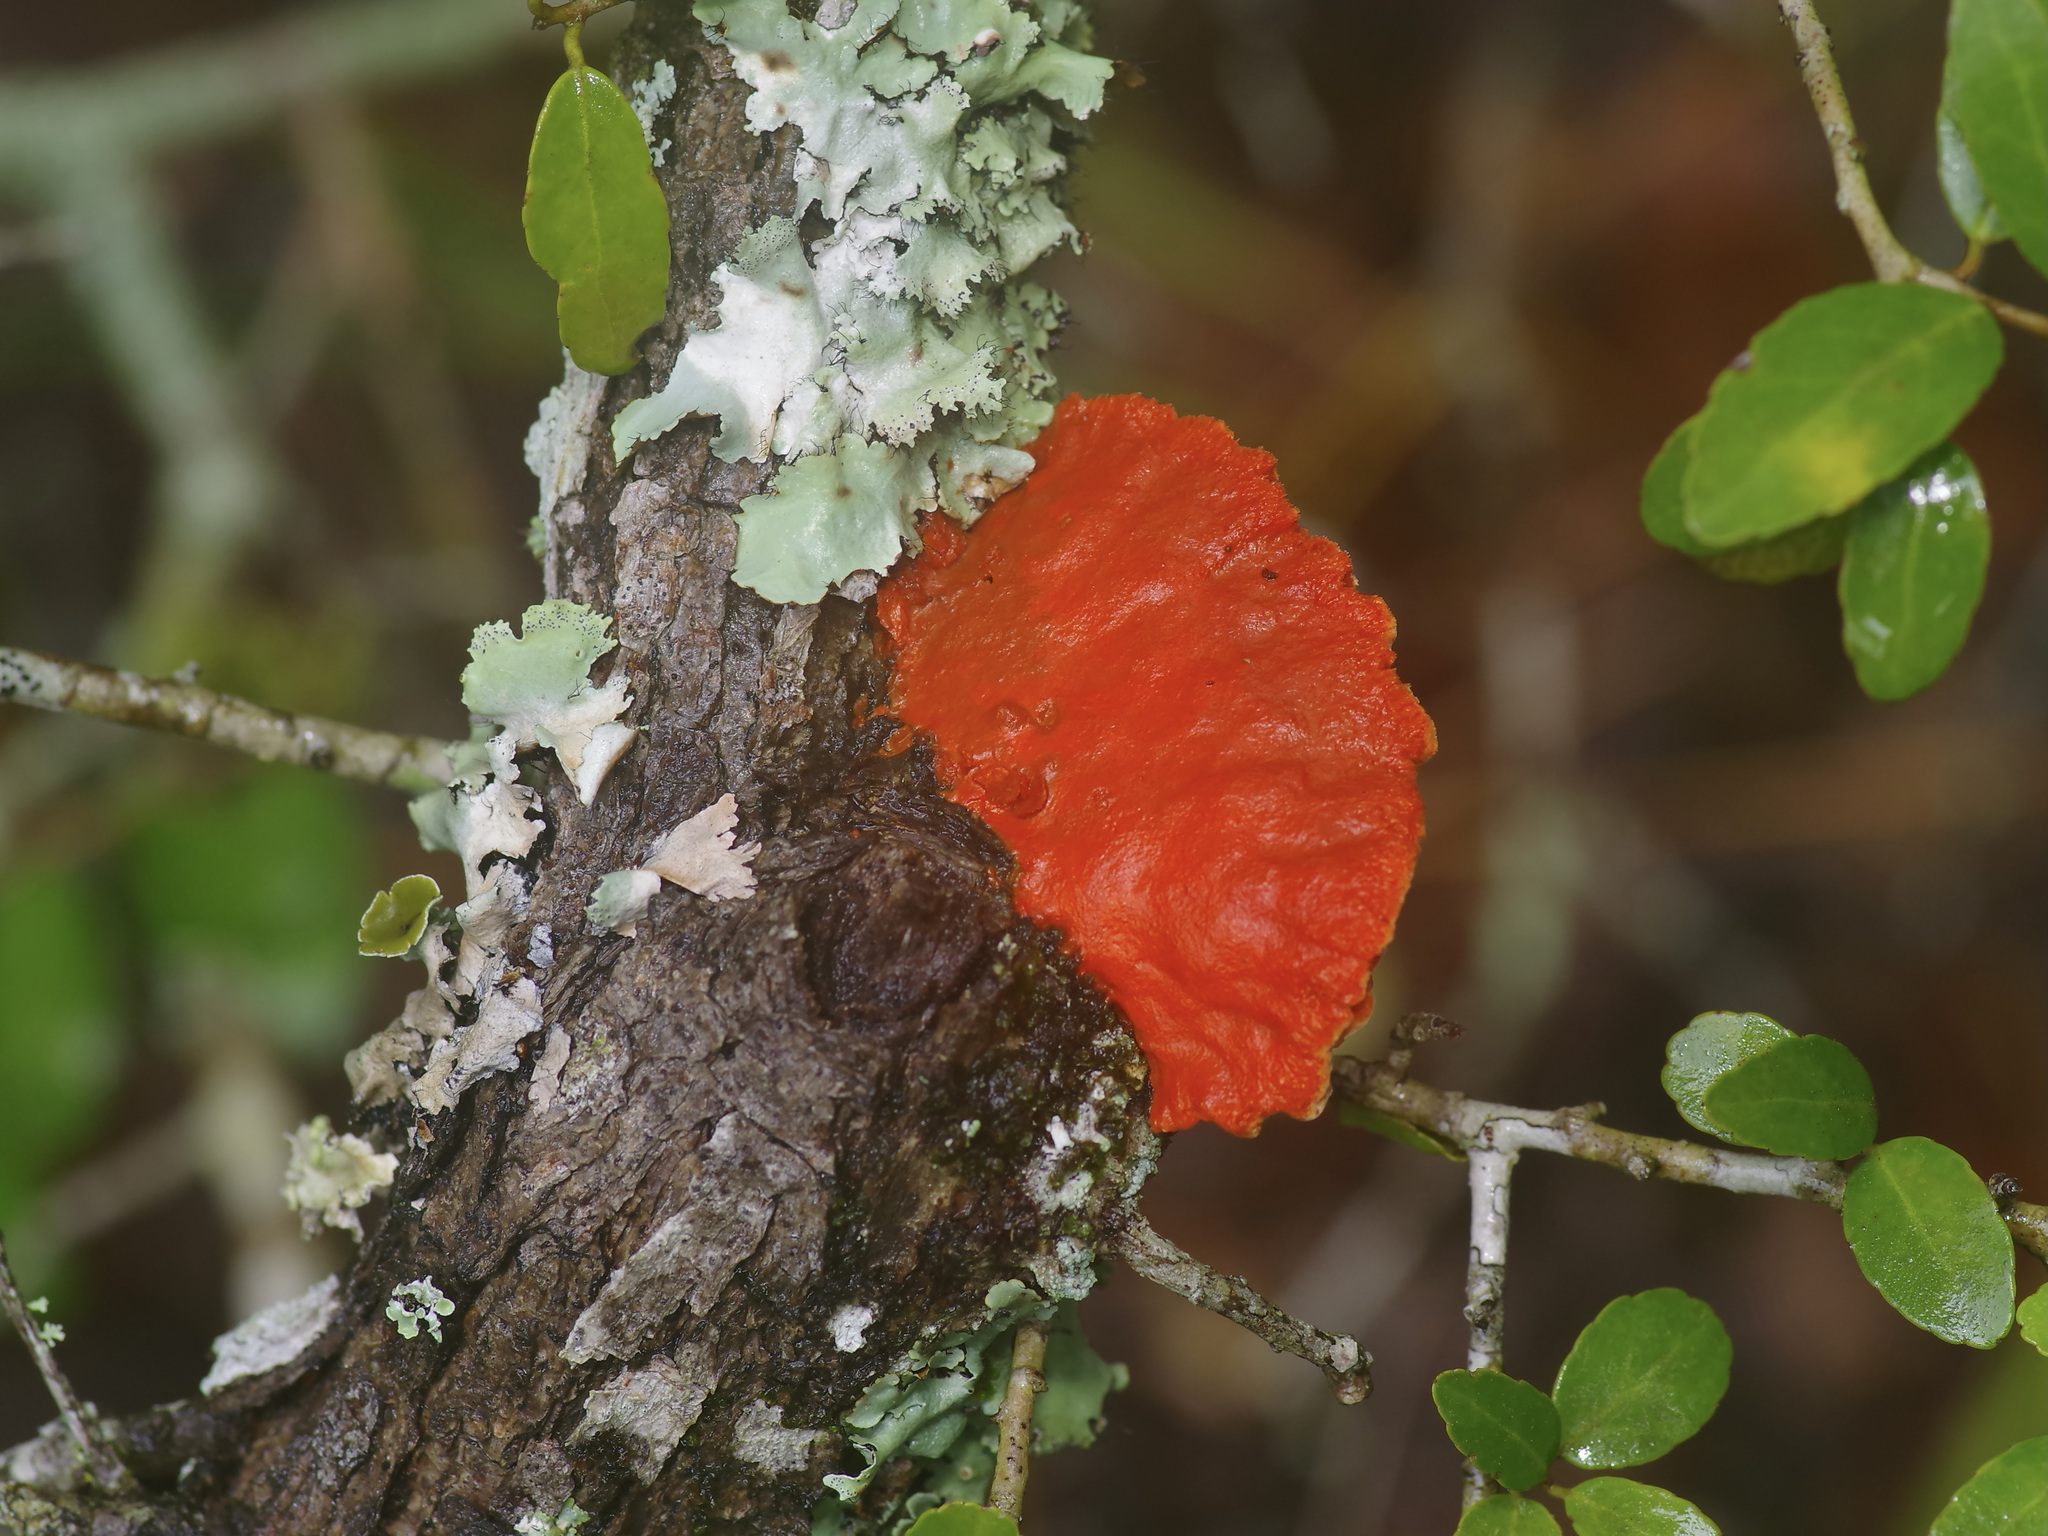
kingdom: Fungi
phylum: Basidiomycota
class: Agaricomycetes
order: Polyporales
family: Polyporaceae
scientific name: Polyporaceae
